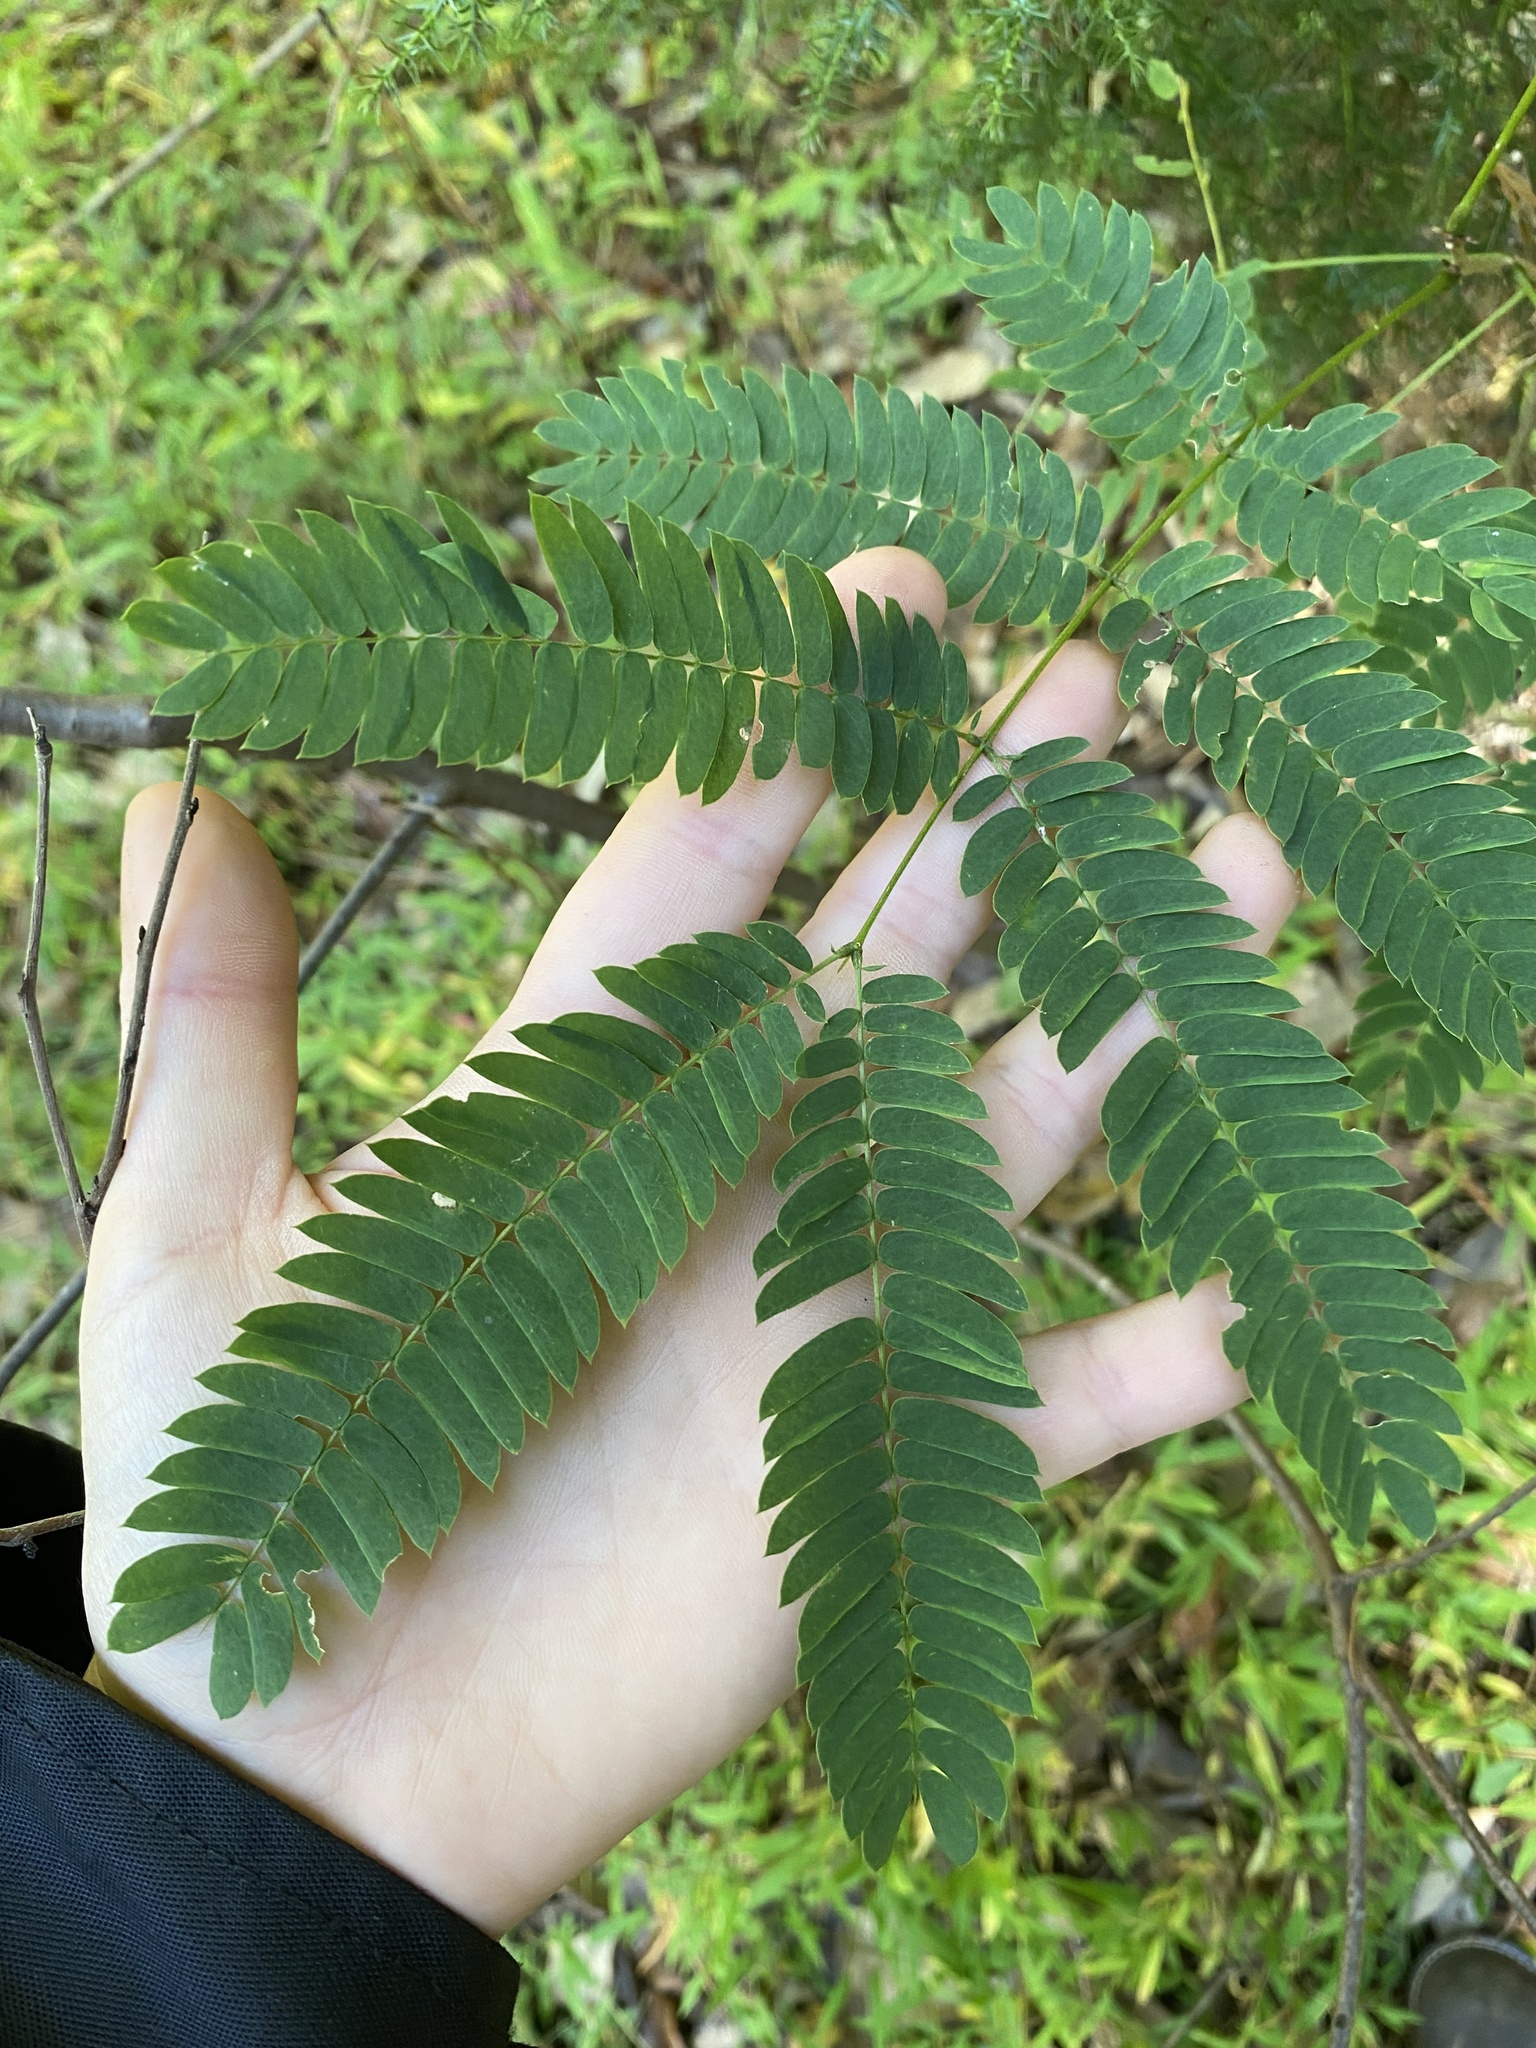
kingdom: Plantae
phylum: Tracheophyta
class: Magnoliopsida
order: Fabales
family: Fabaceae
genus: Albizia
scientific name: Albizia julibrissin
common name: Silktree
